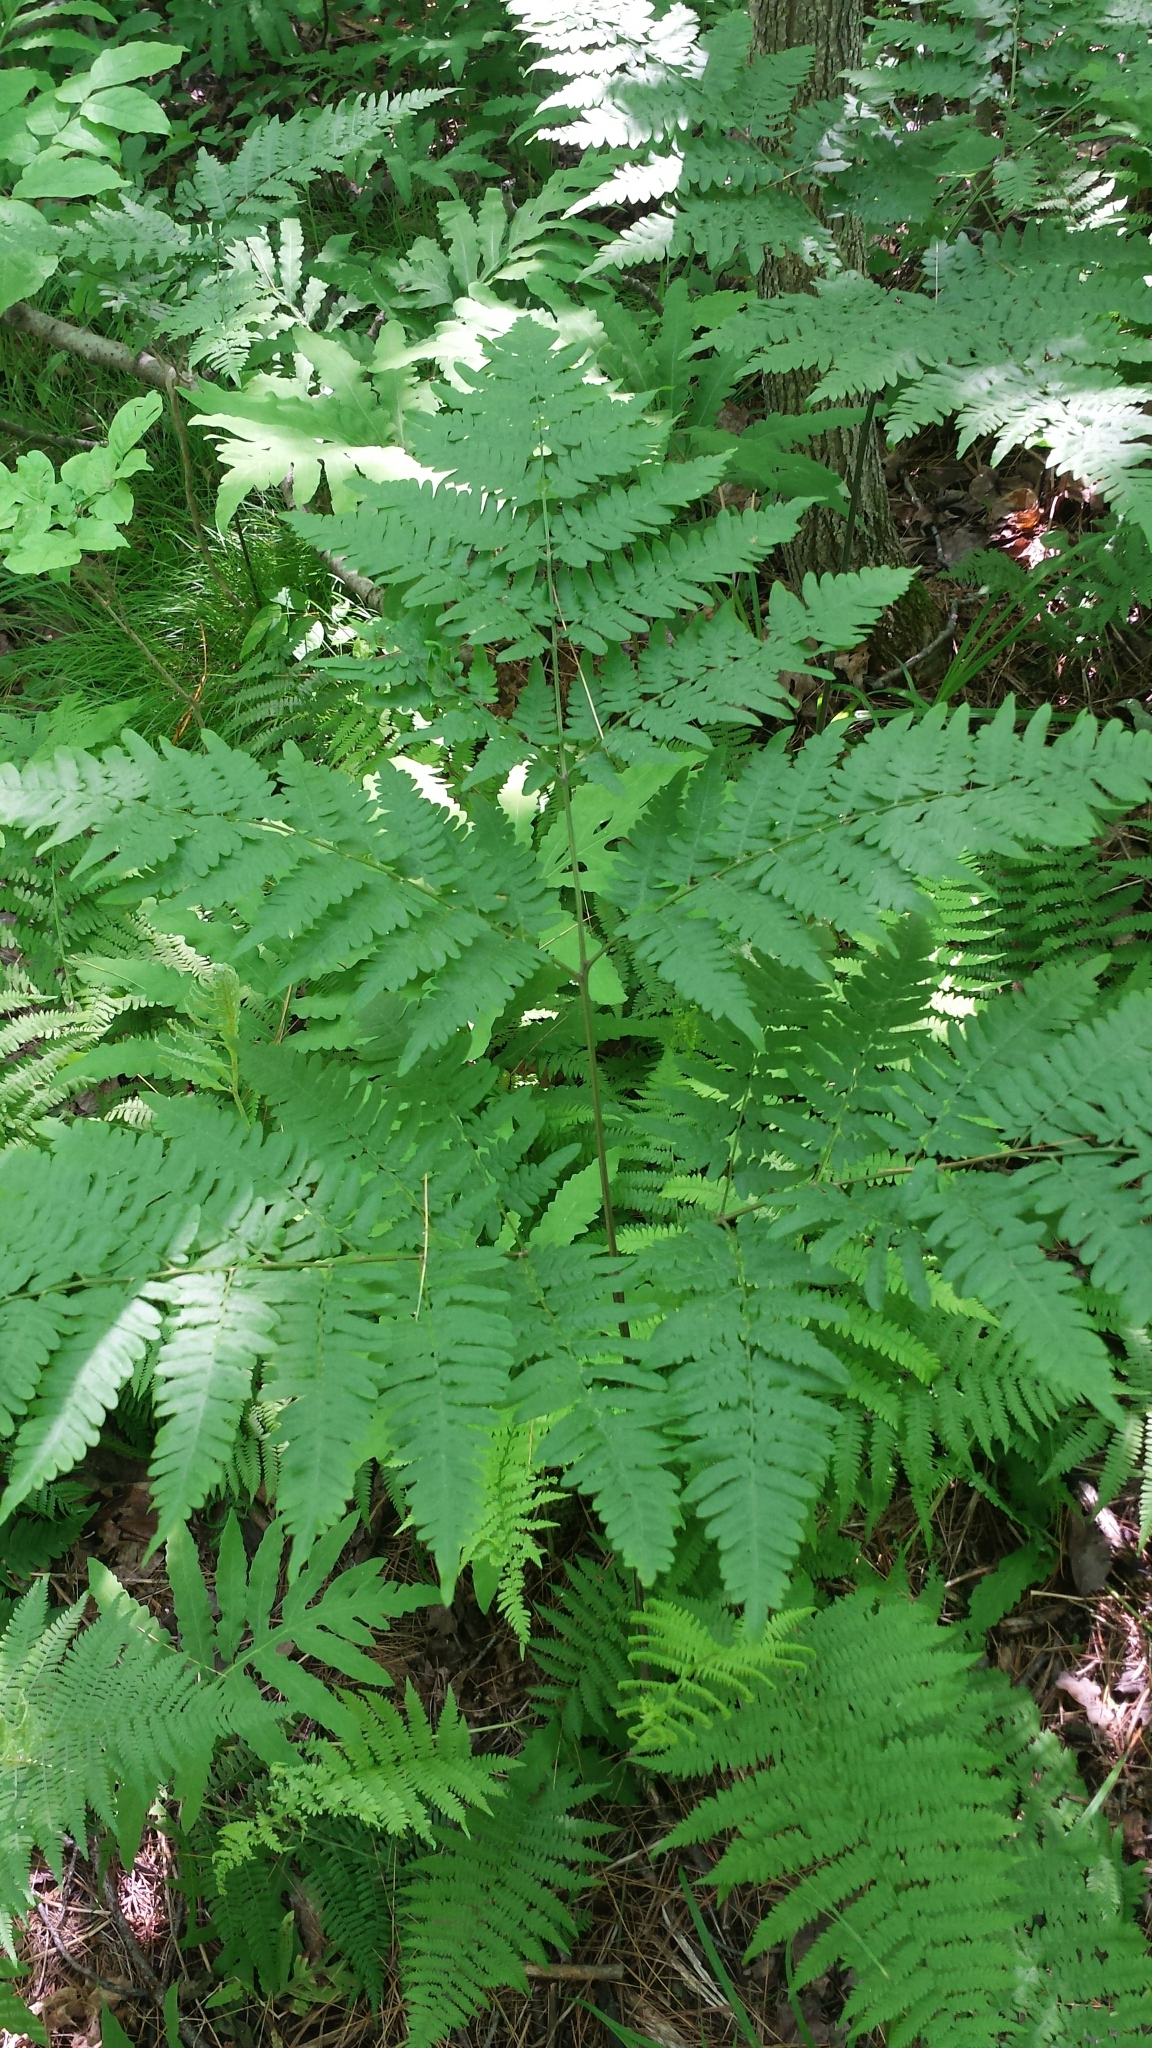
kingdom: Plantae
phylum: Tracheophyta
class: Polypodiopsida
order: Polypodiales
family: Dennstaedtiaceae
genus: Pteridium
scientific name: Pteridium aquilinum
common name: Bracken
